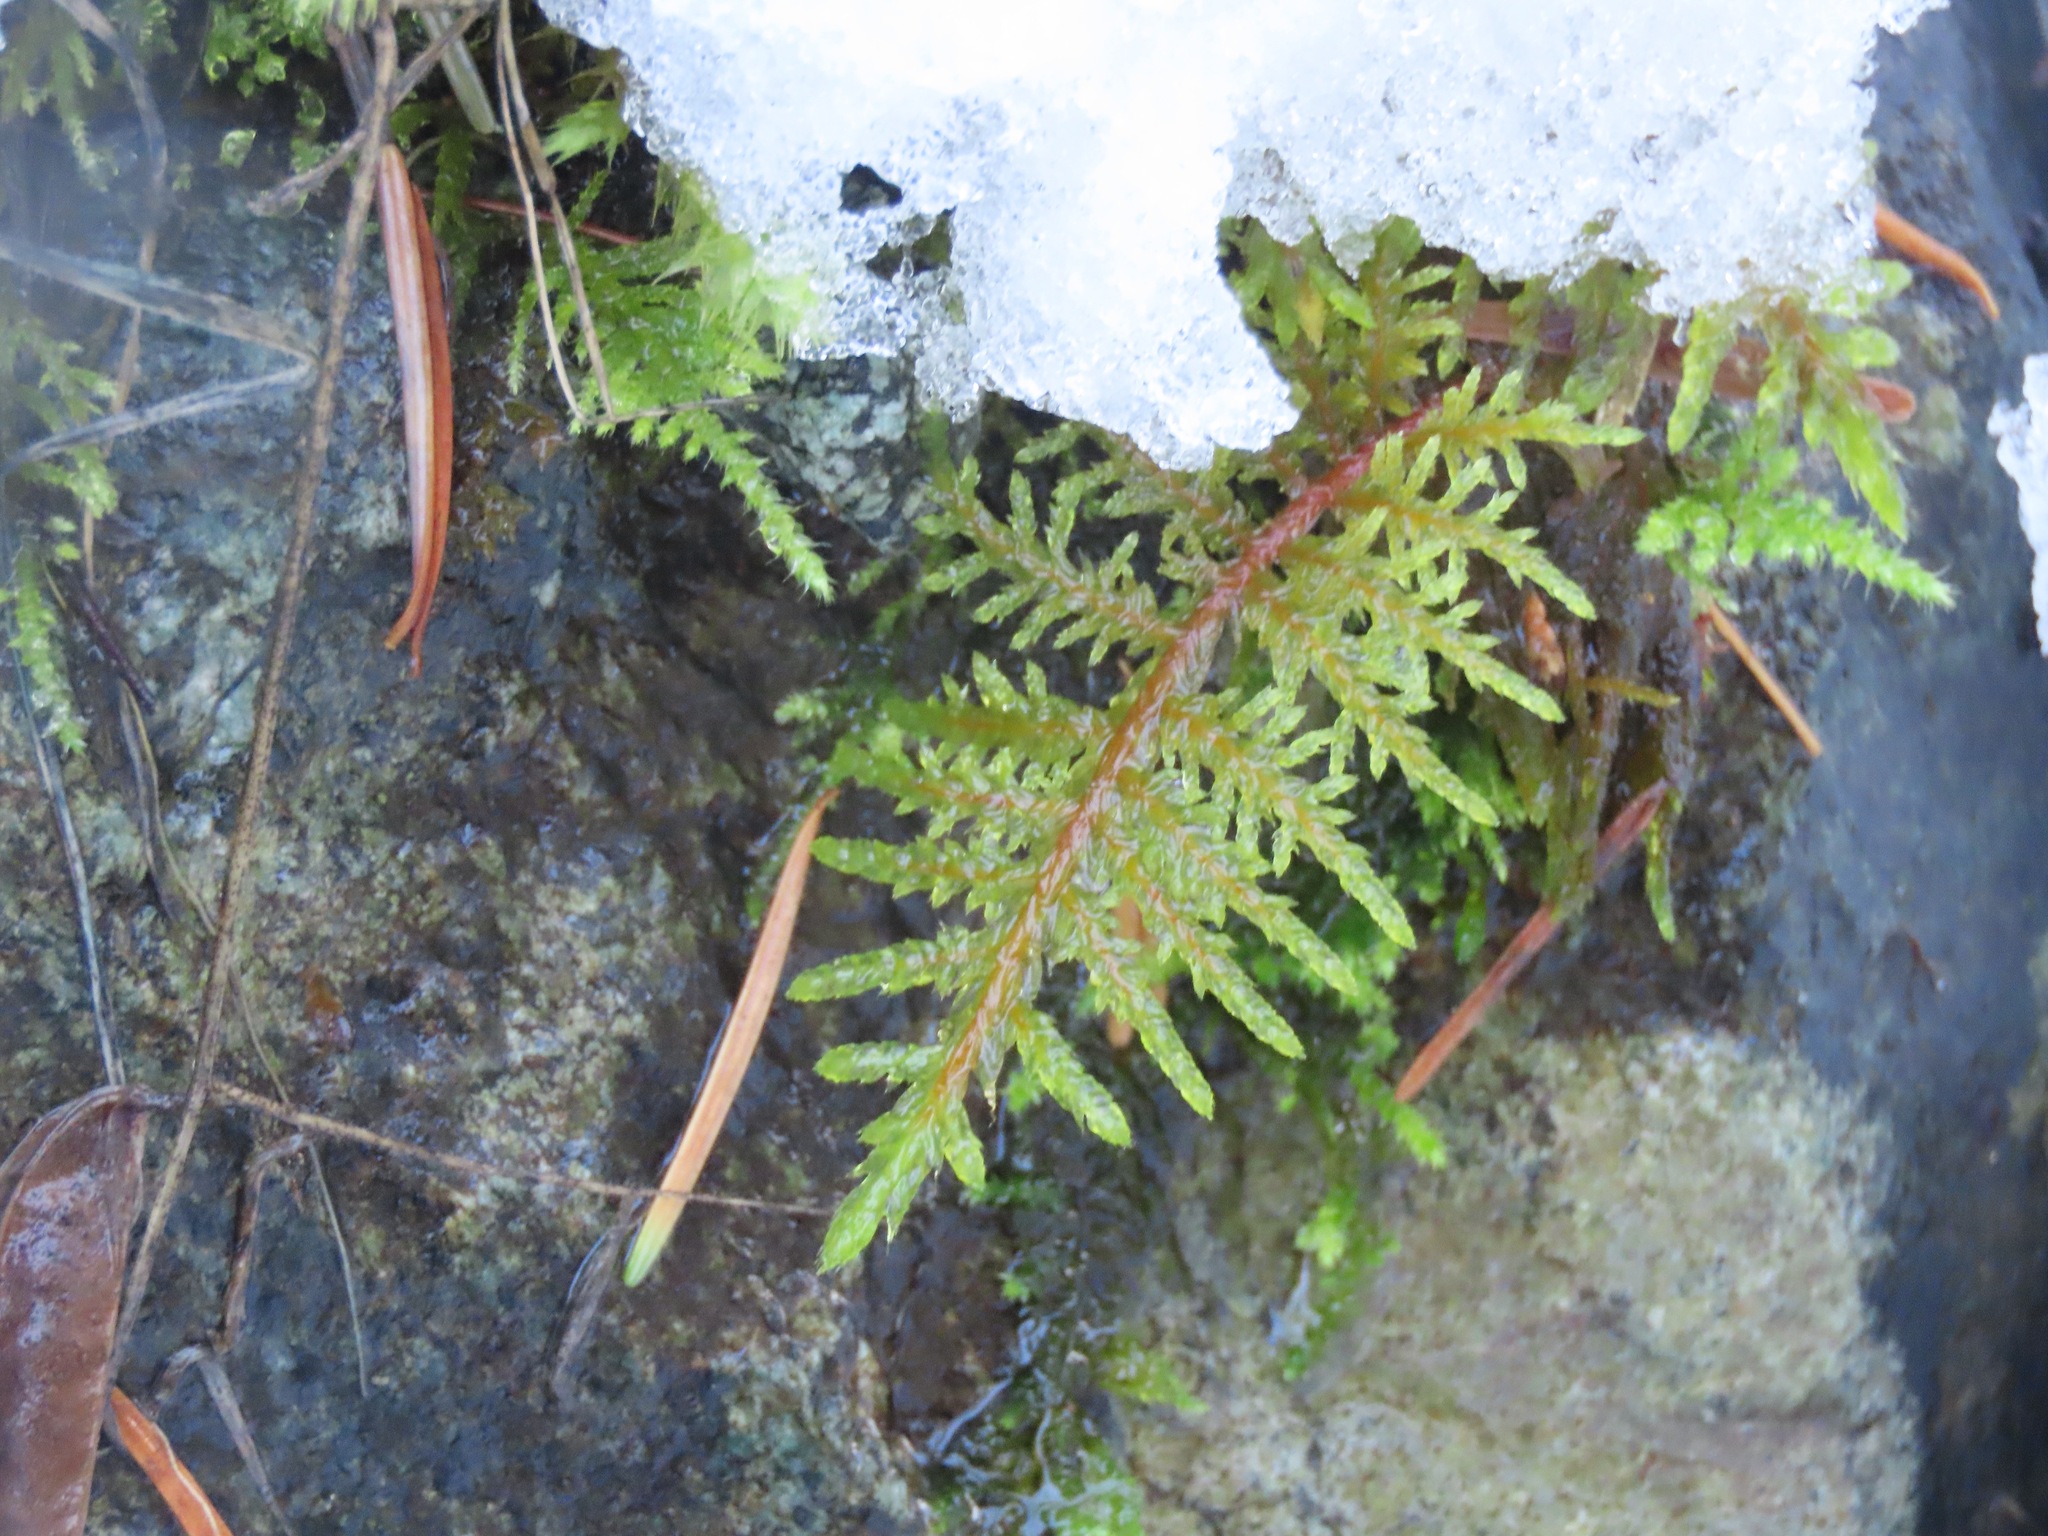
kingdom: Plantae
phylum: Bryophyta
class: Bryopsida
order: Hypnales
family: Hylocomiaceae
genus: Hylocomium
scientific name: Hylocomium splendens
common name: Stairstep moss
